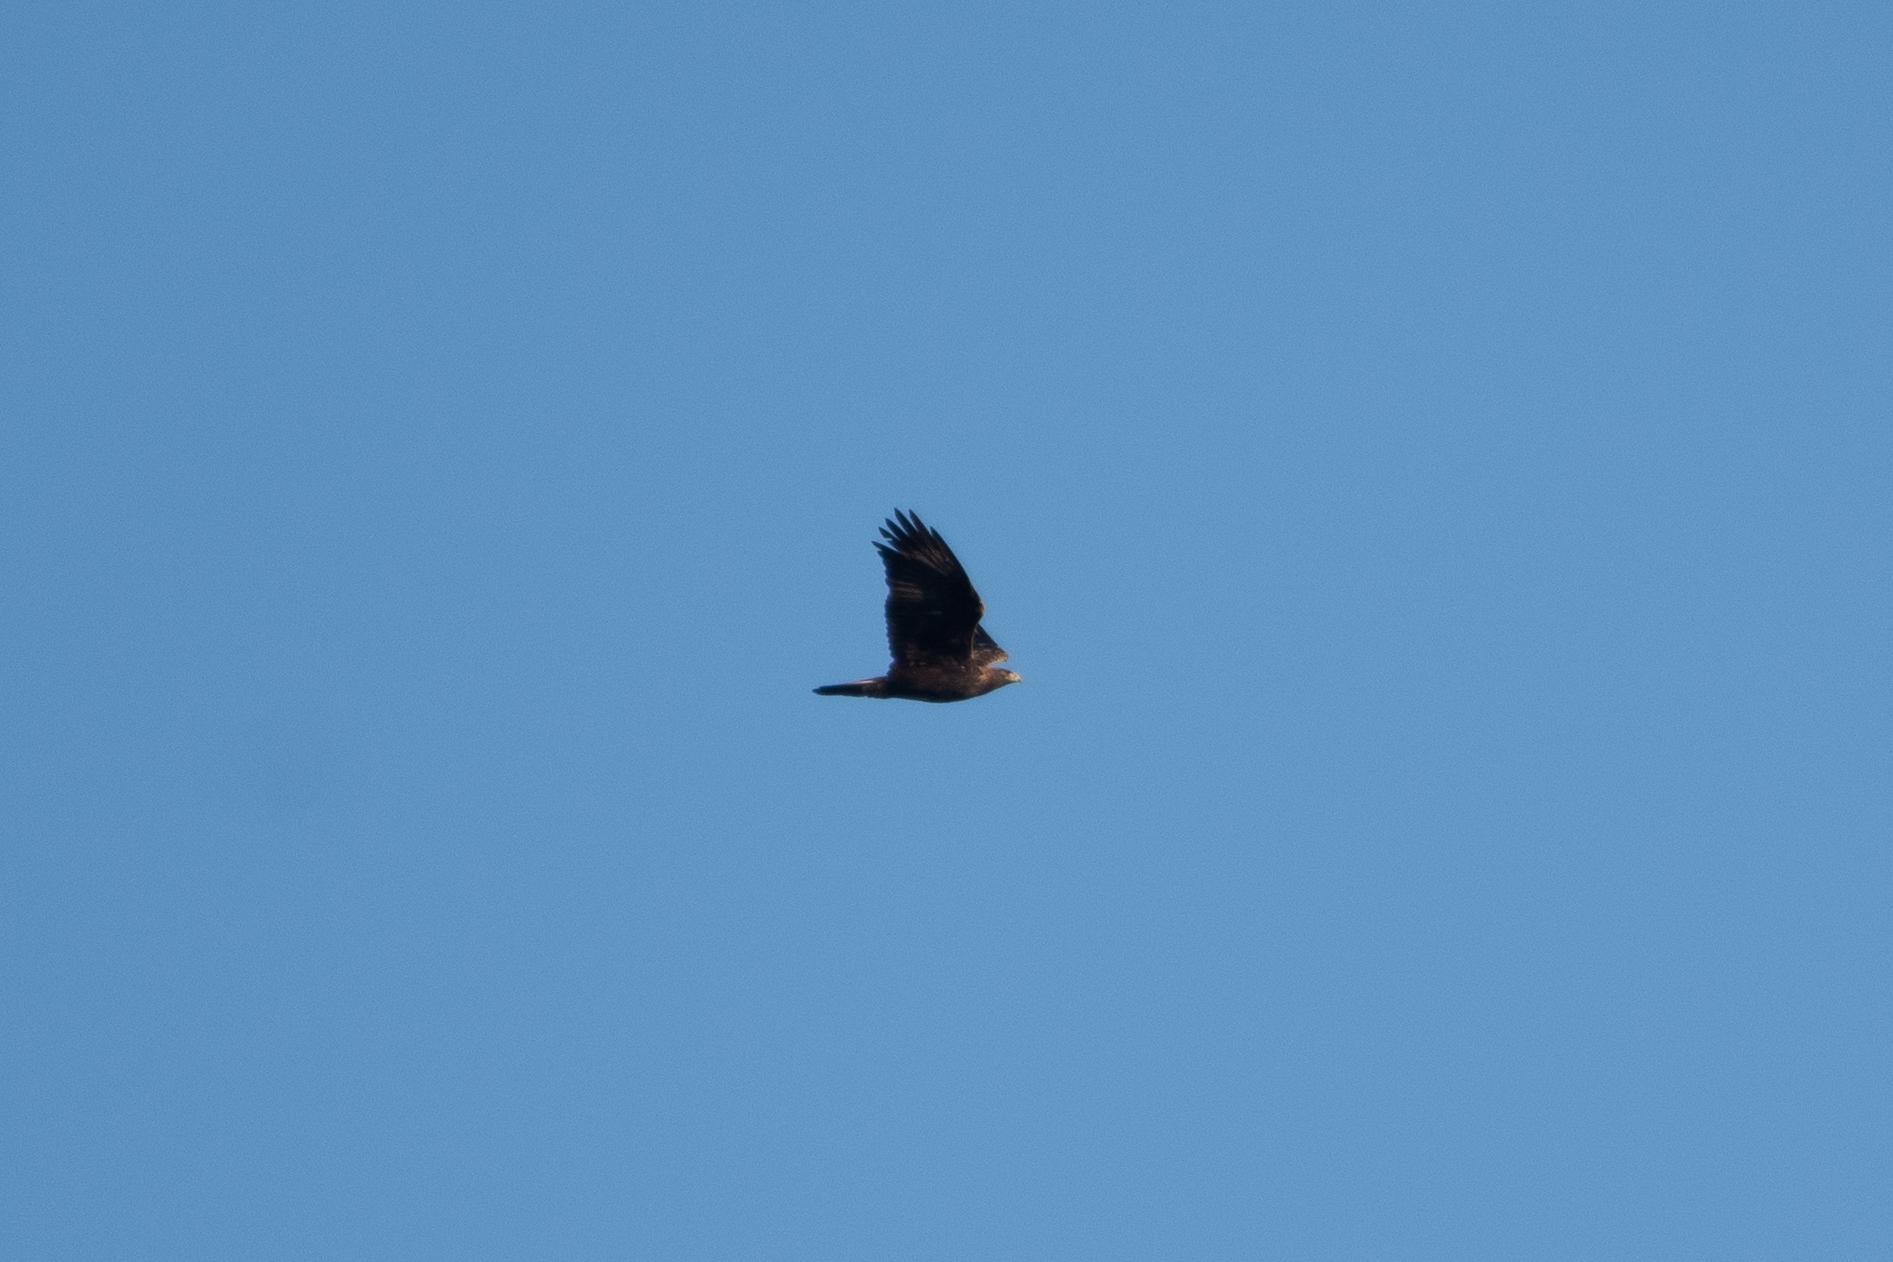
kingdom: Animalia
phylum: Chordata
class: Aves
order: Accipitriformes
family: Accipitridae
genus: Aquila
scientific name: Aquila chrysaetos
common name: Golden eagle
